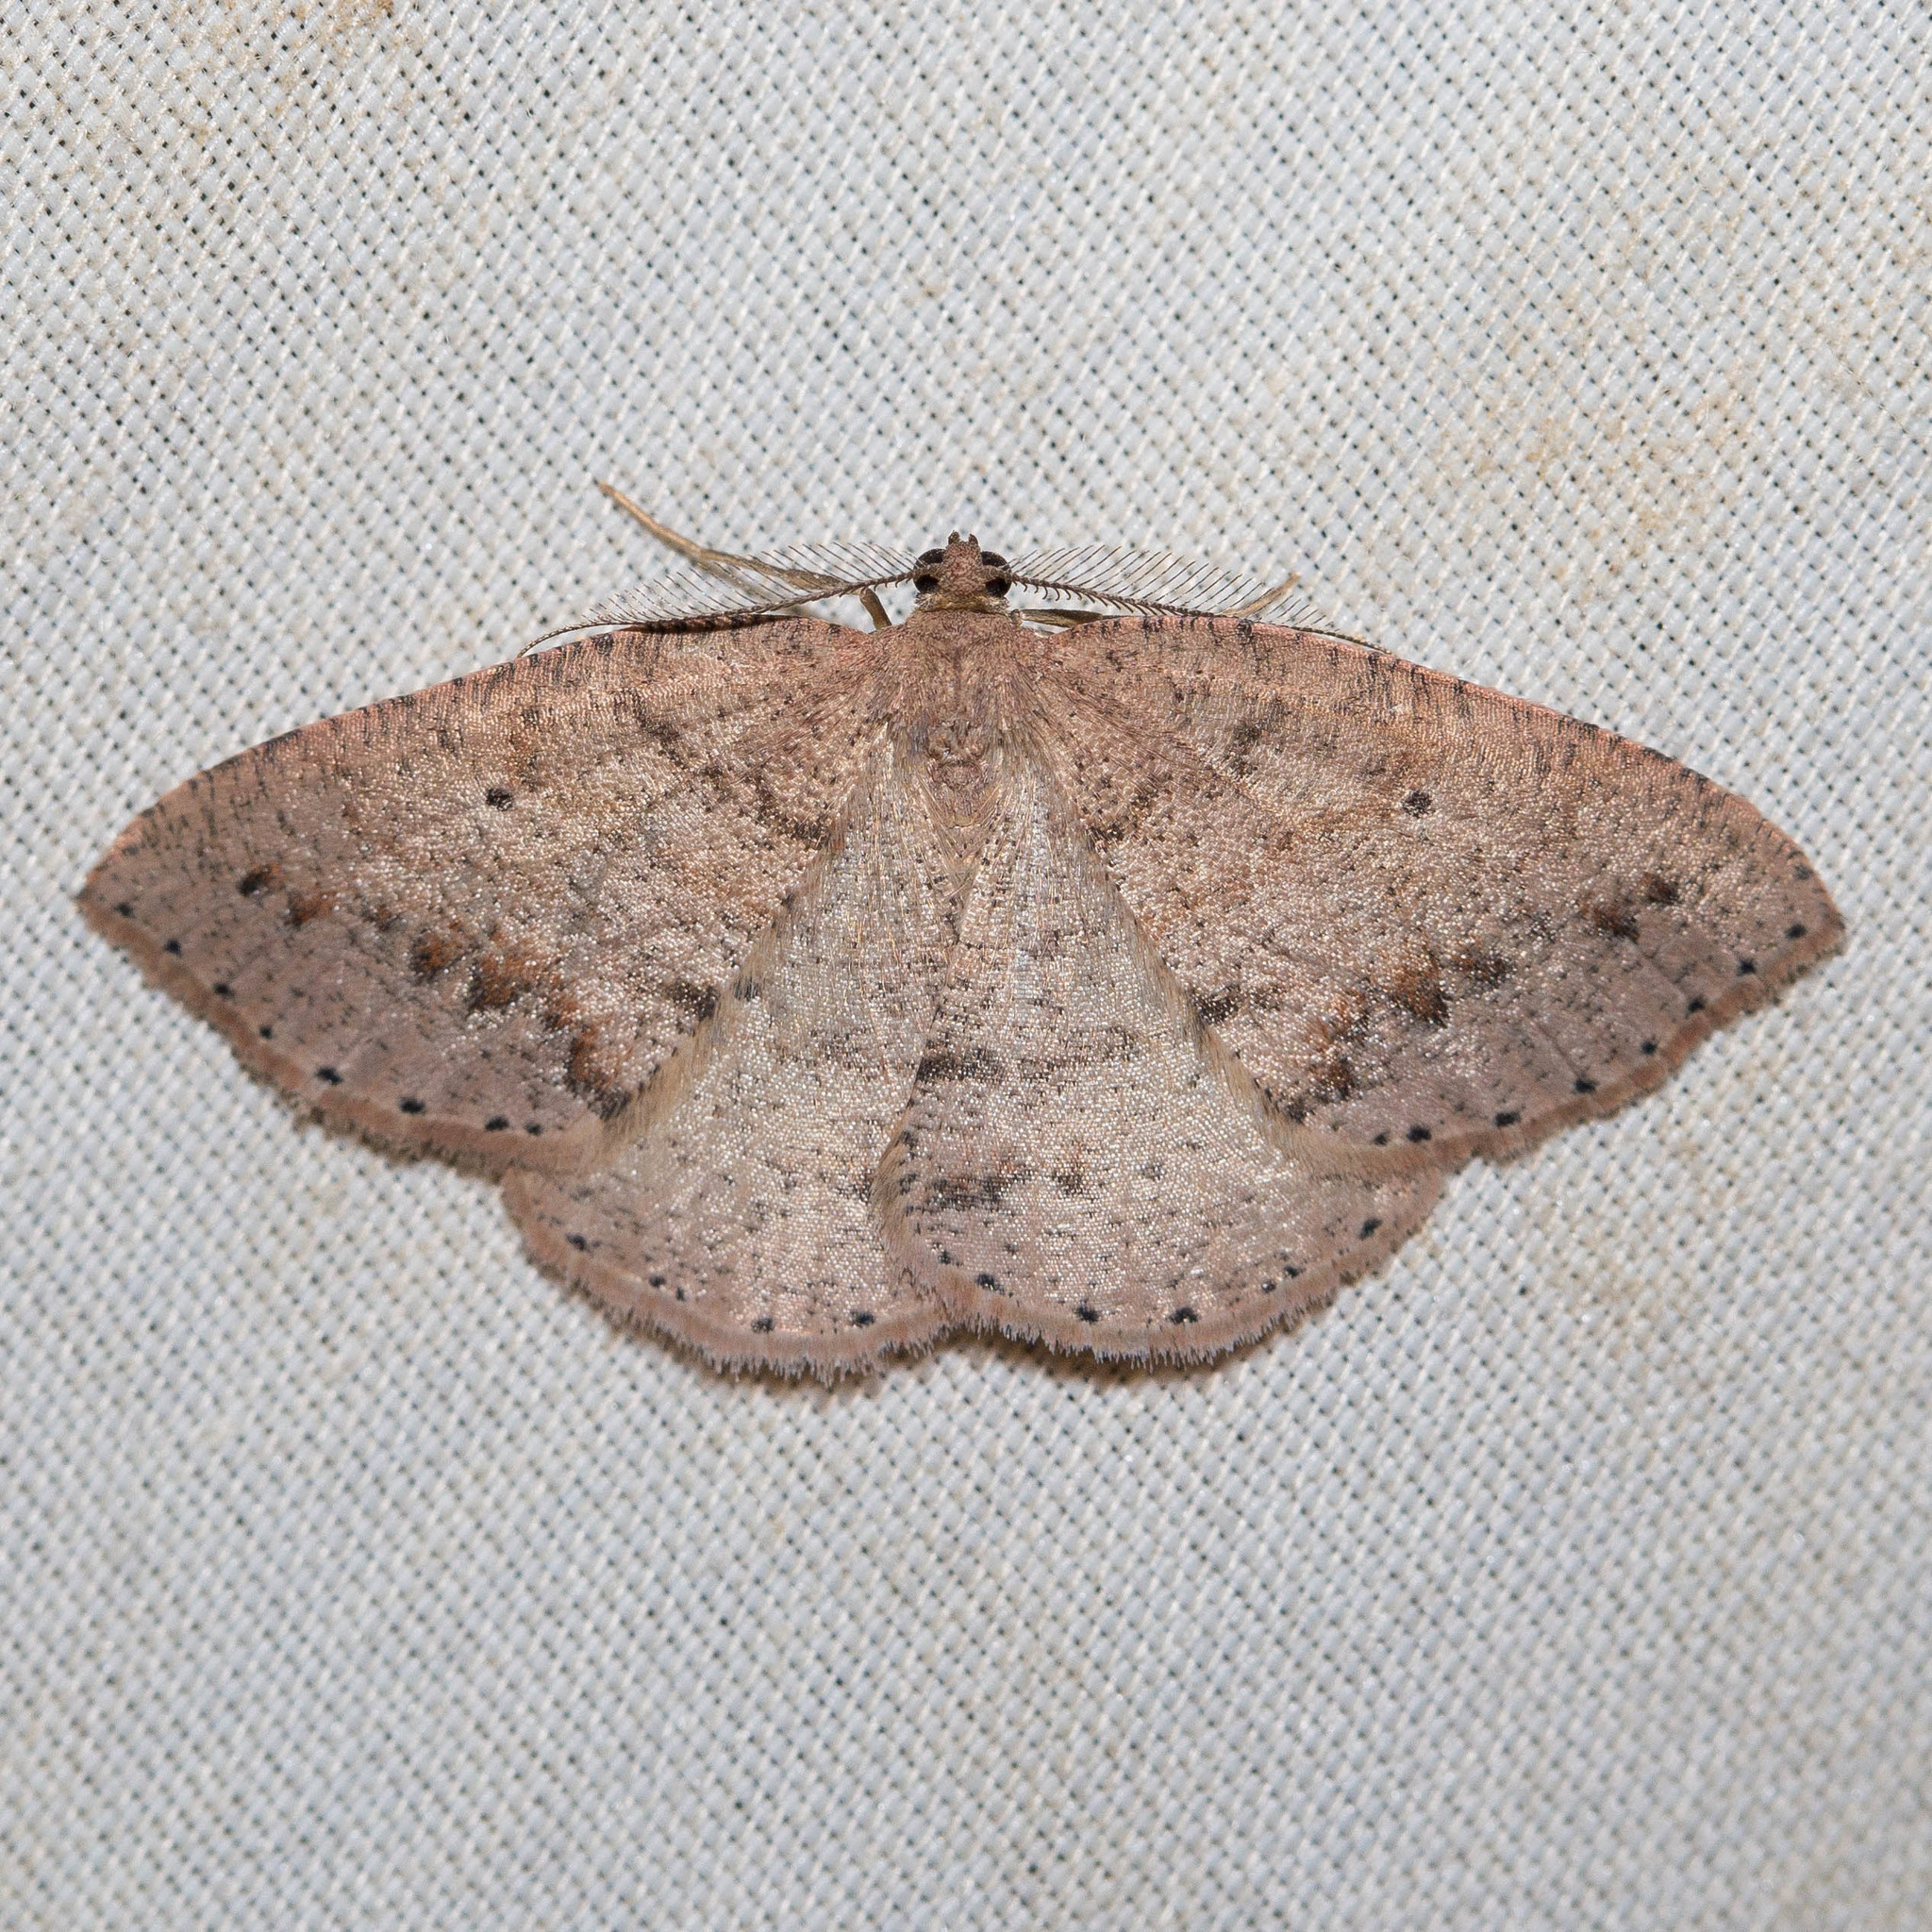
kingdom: Animalia
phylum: Arthropoda
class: Insecta
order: Lepidoptera
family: Geometridae
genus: Drepanulatrix
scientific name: Drepanulatrix secundaria
